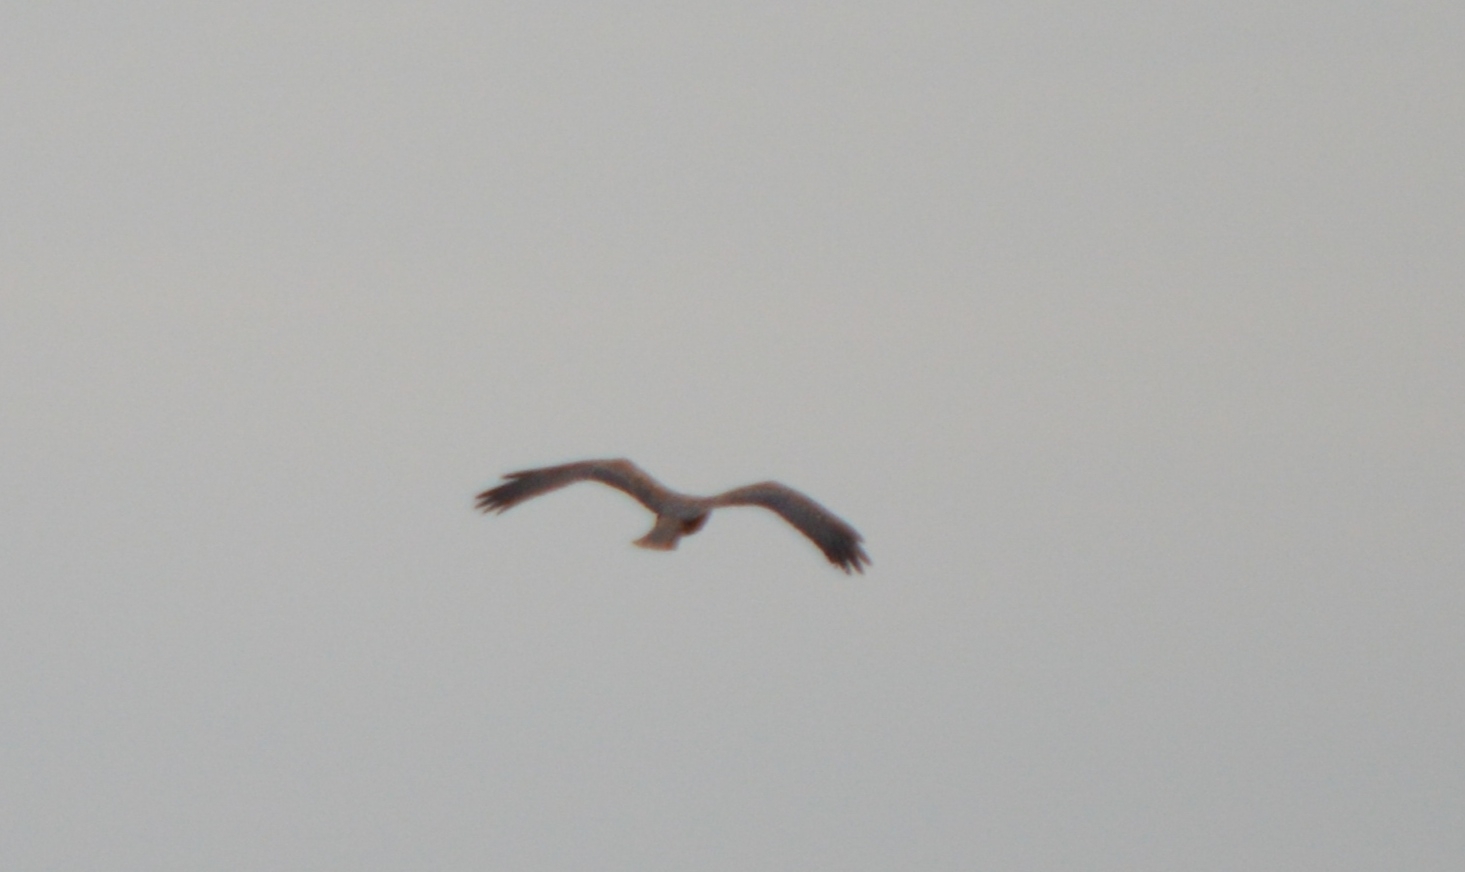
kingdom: Animalia
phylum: Chordata
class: Aves
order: Accipitriformes
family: Accipitridae
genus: Circus
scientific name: Circus aeruginosus
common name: Western marsh harrier
